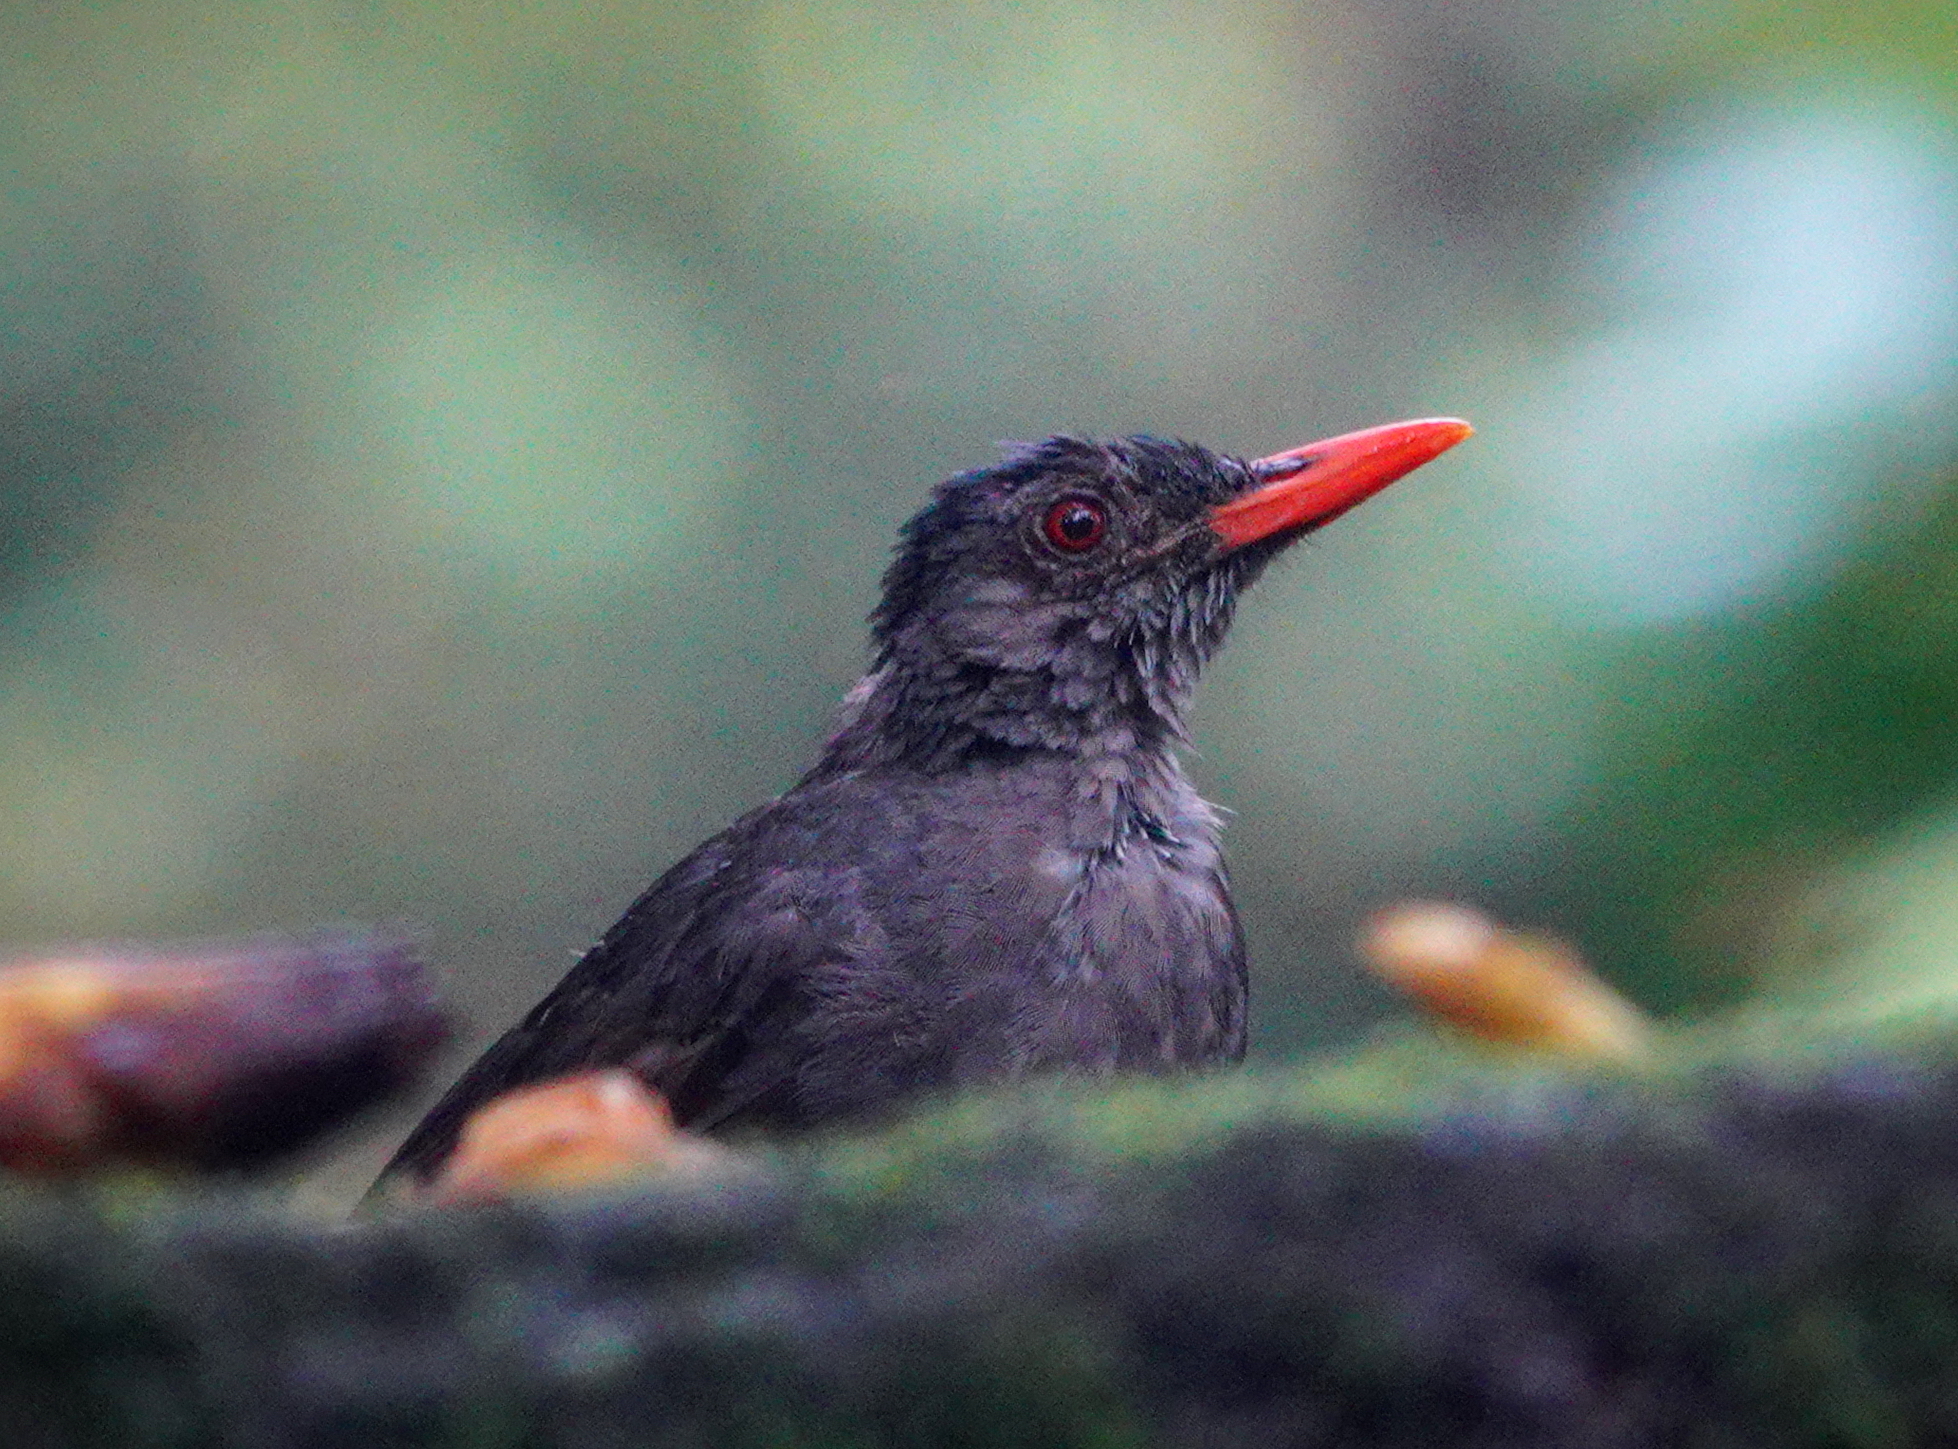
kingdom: Animalia
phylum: Chordata
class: Aves
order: Passeriformes
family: Pycnonotidae
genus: Hypsipetes
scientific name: Hypsipetes ganeesa
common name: Square-tailed bulbul
